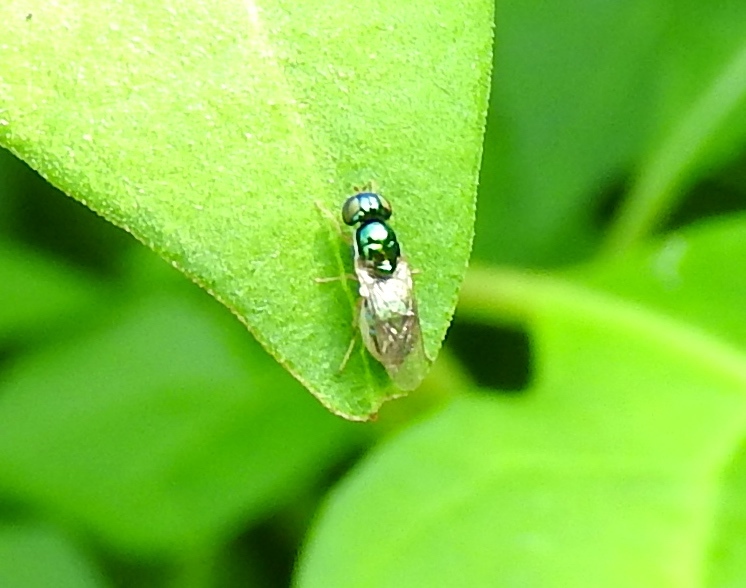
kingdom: Animalia
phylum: Arthropoda
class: Insecta
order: Diptera
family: Stratiomyidae
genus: Microchrysa
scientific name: Microchrysa
